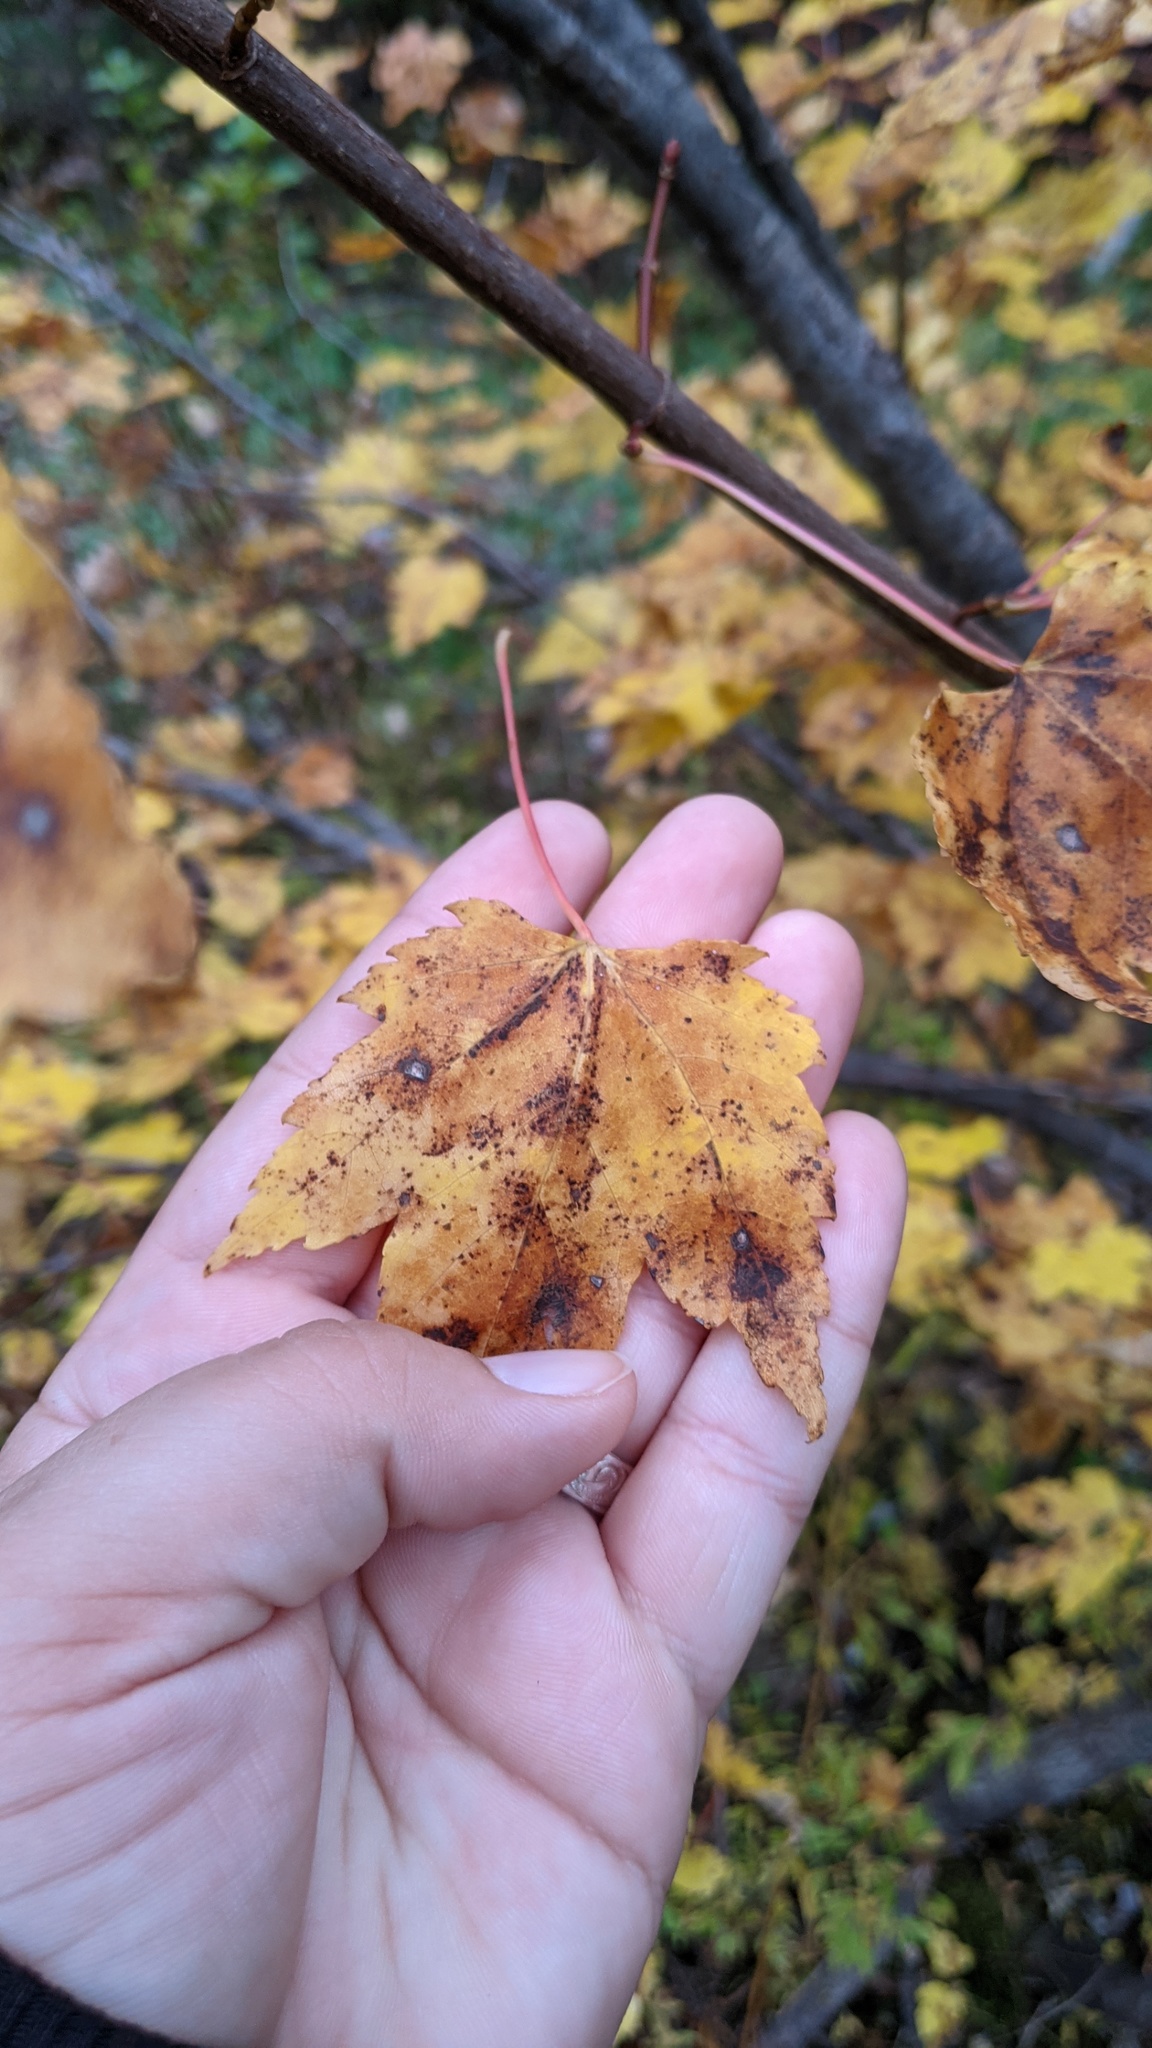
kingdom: Plantae
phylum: Tracheophyta
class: Magnoliopsida
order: Sapindales
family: Sapindaceae
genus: Acer
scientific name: Acer rubrum
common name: Red maple
